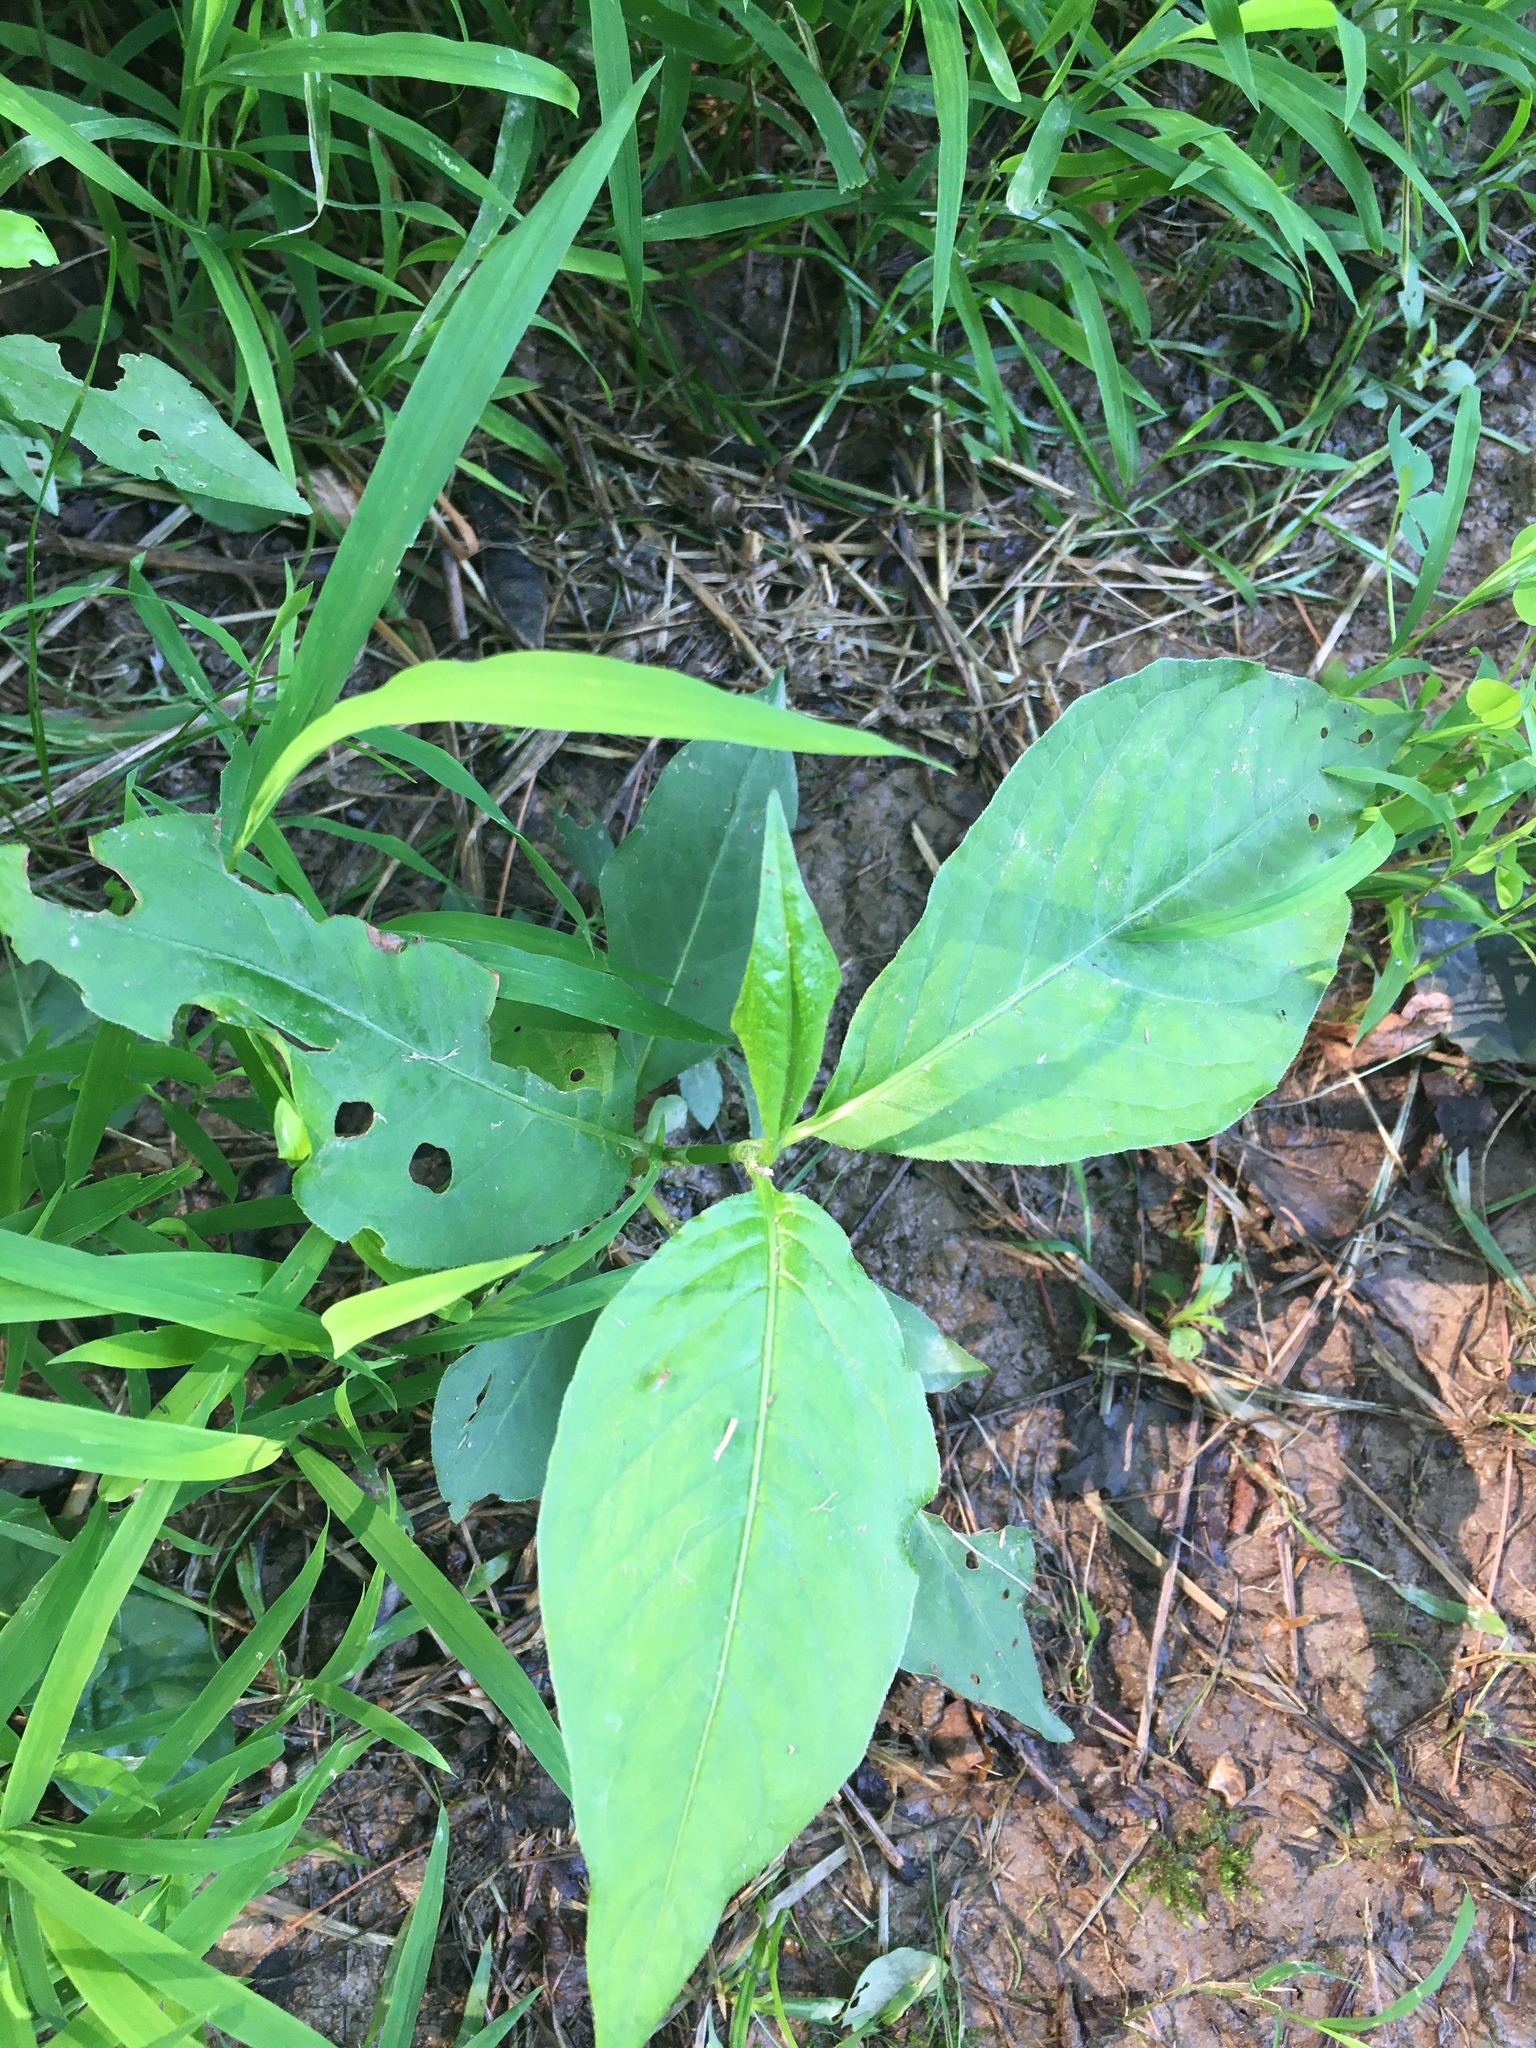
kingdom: Plantae
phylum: Tracheophyta
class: Magnoliopsida
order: Caryophyllales
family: Polygonaceae
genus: Persicaria
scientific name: Persicaria virginiana
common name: Jumpseed
